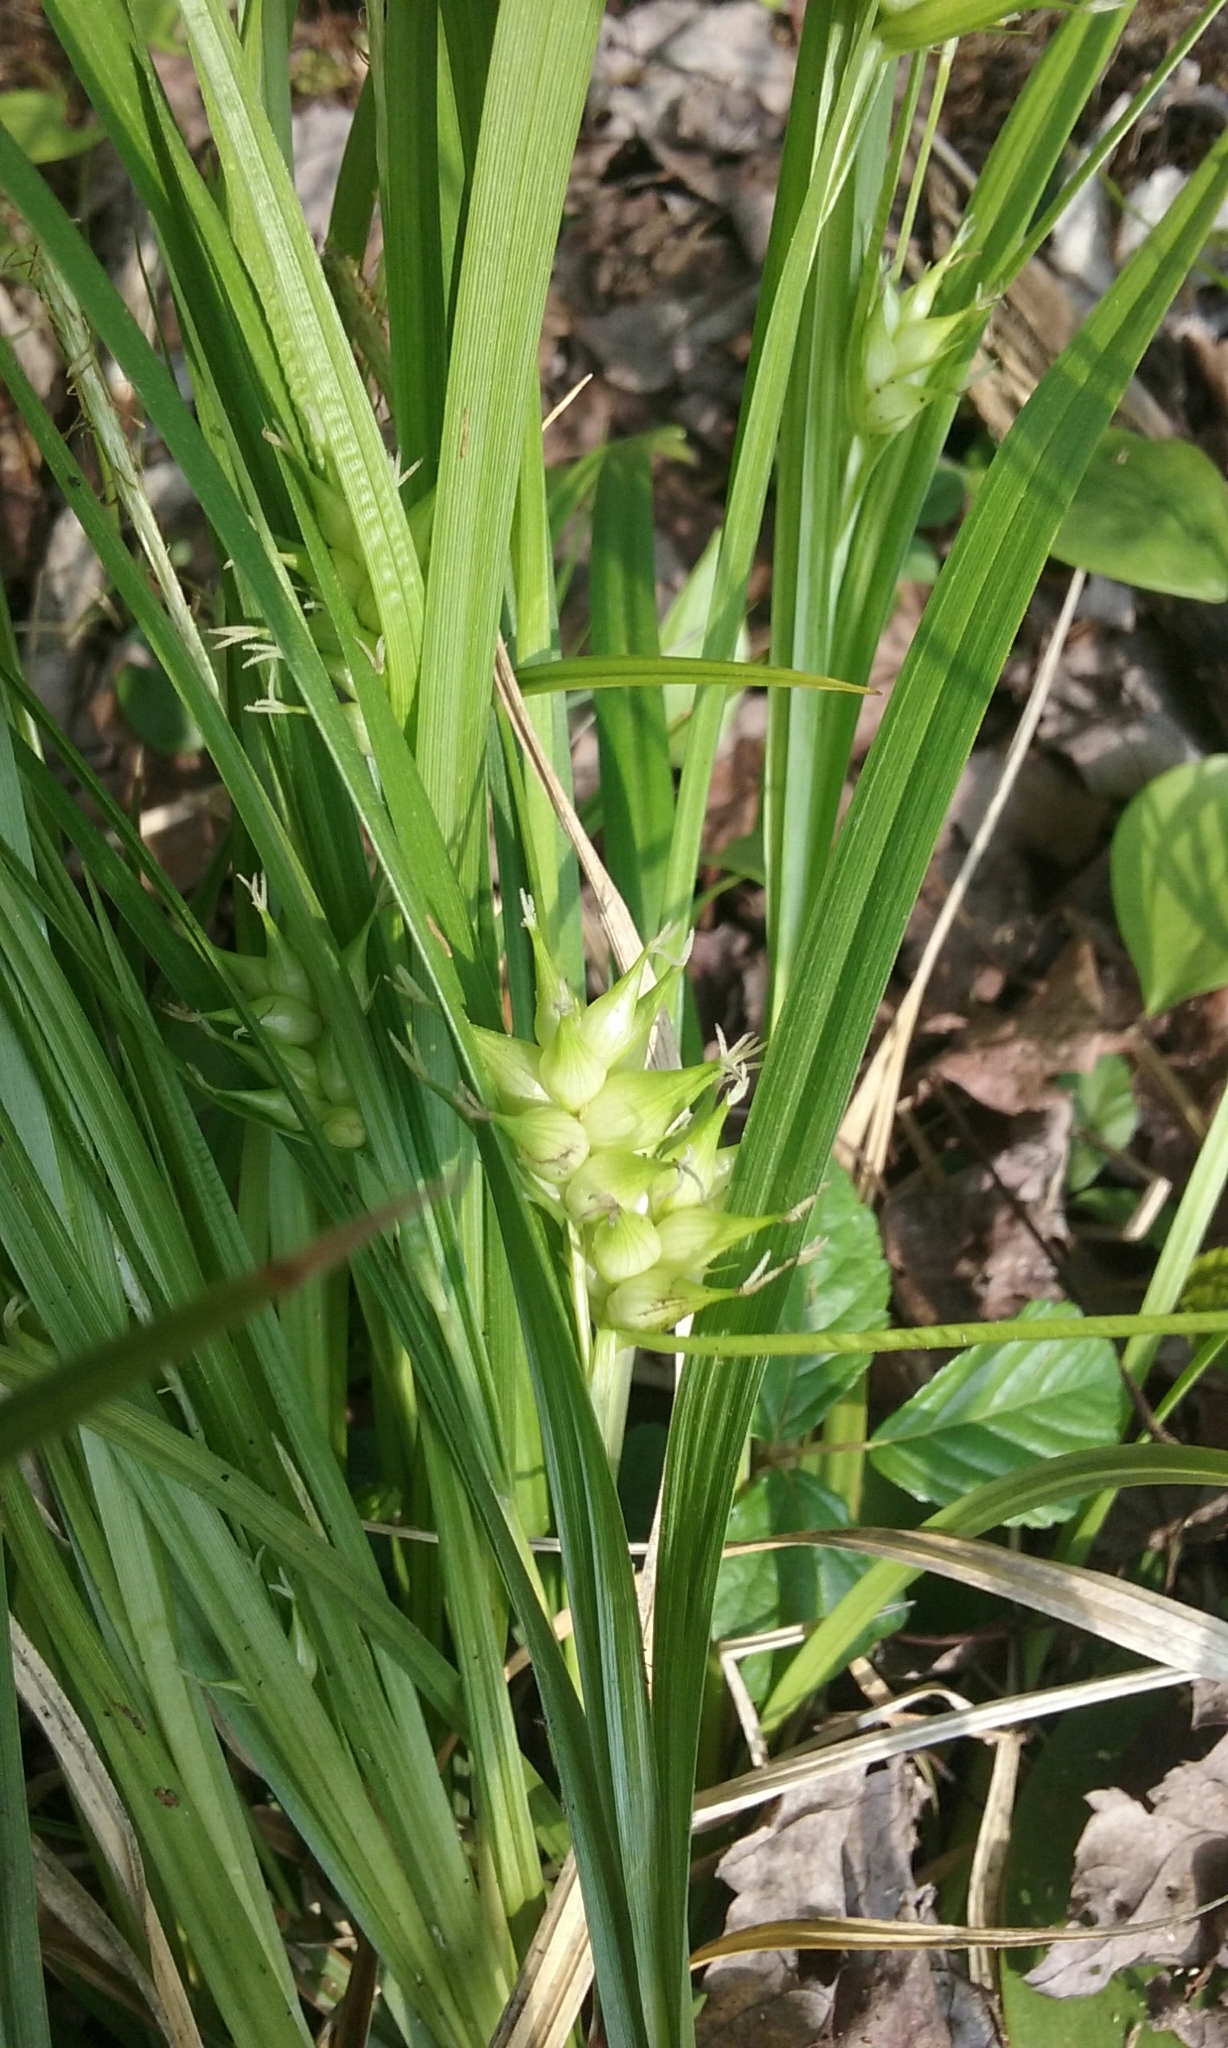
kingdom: Plantae
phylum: Tracheophyta
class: Liliopsida
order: Poales
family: Cyperaceae
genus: Carex
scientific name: Carex intumescens
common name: Greater bladder sedge
